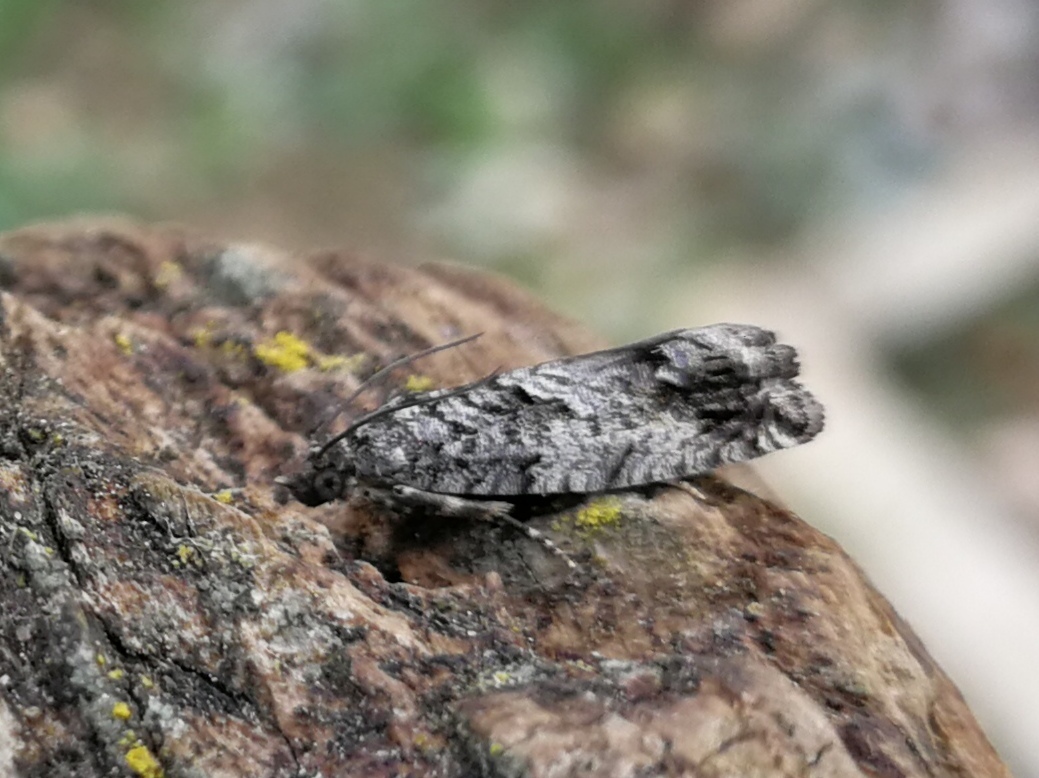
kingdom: Animalia
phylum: Arthropoda
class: Insecta
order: Lepidoptera
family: Tortricidae
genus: Cydia
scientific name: Cydia splendana
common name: De: kastanienwickler, eichenwickler es: oruga de la castaña fr: carpocapse des châtaignes it: cidia o tortrice tardiva delle castagne pt: bichado das castanhas gb: acorn moth, chestnut fruit tortrix
